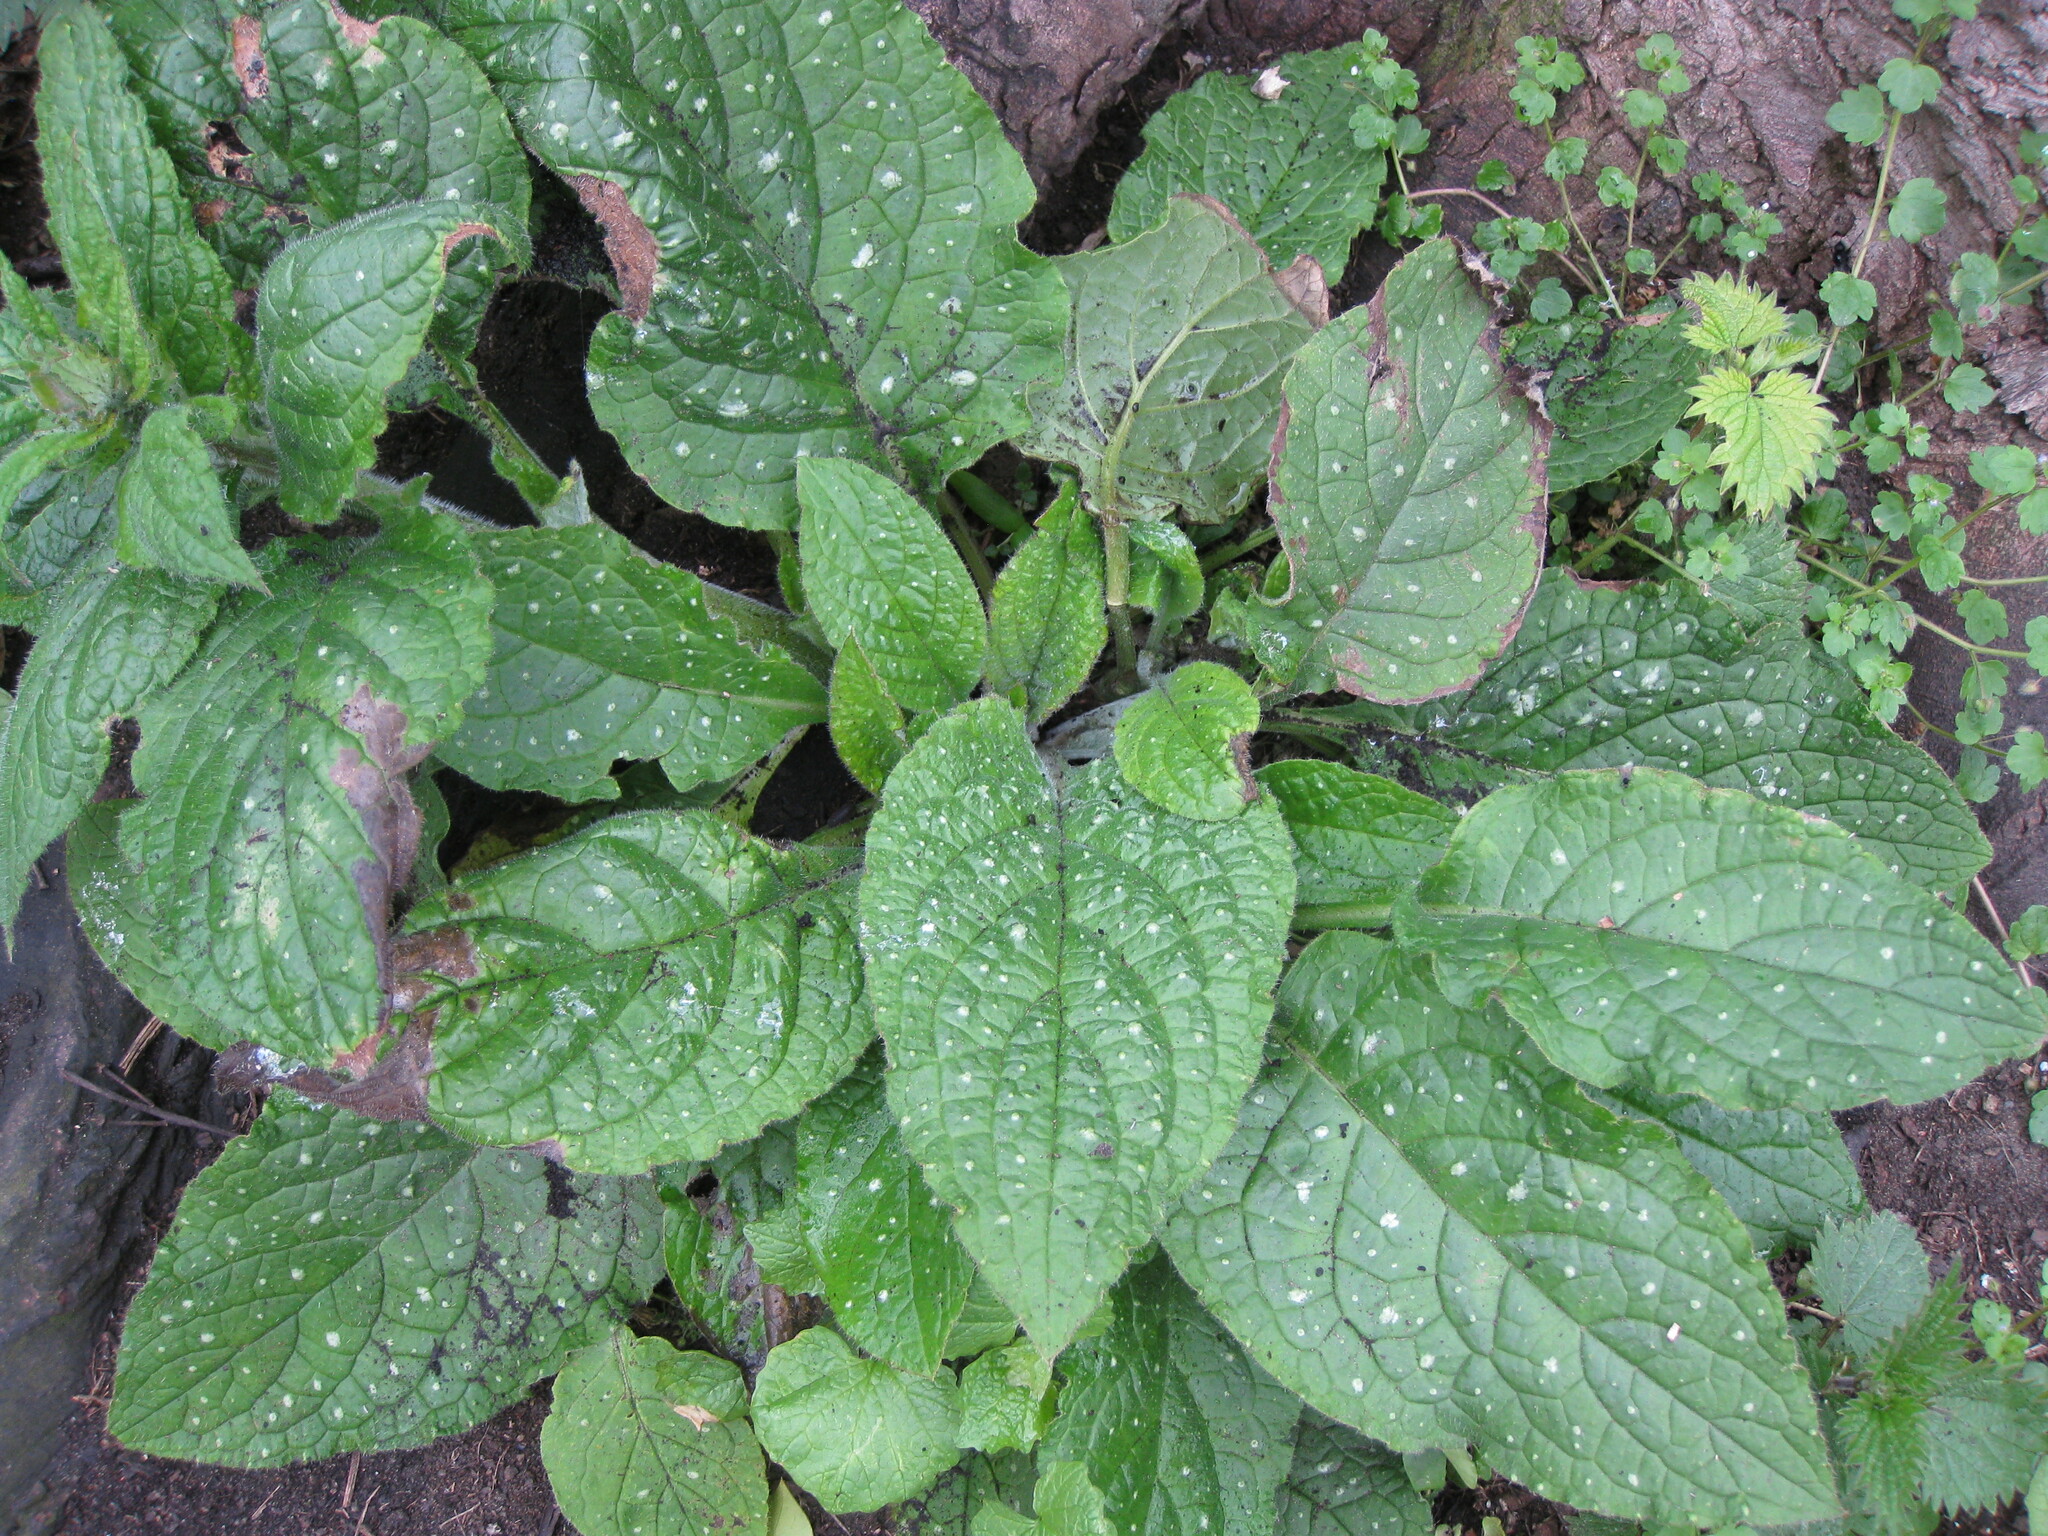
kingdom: Plantae
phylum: Tracheophyta
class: Magnoliopsida
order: Boraginales
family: Boraginaceae
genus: Pentaglottis
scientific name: Pentaglottis sempervirens
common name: Green alkanet
